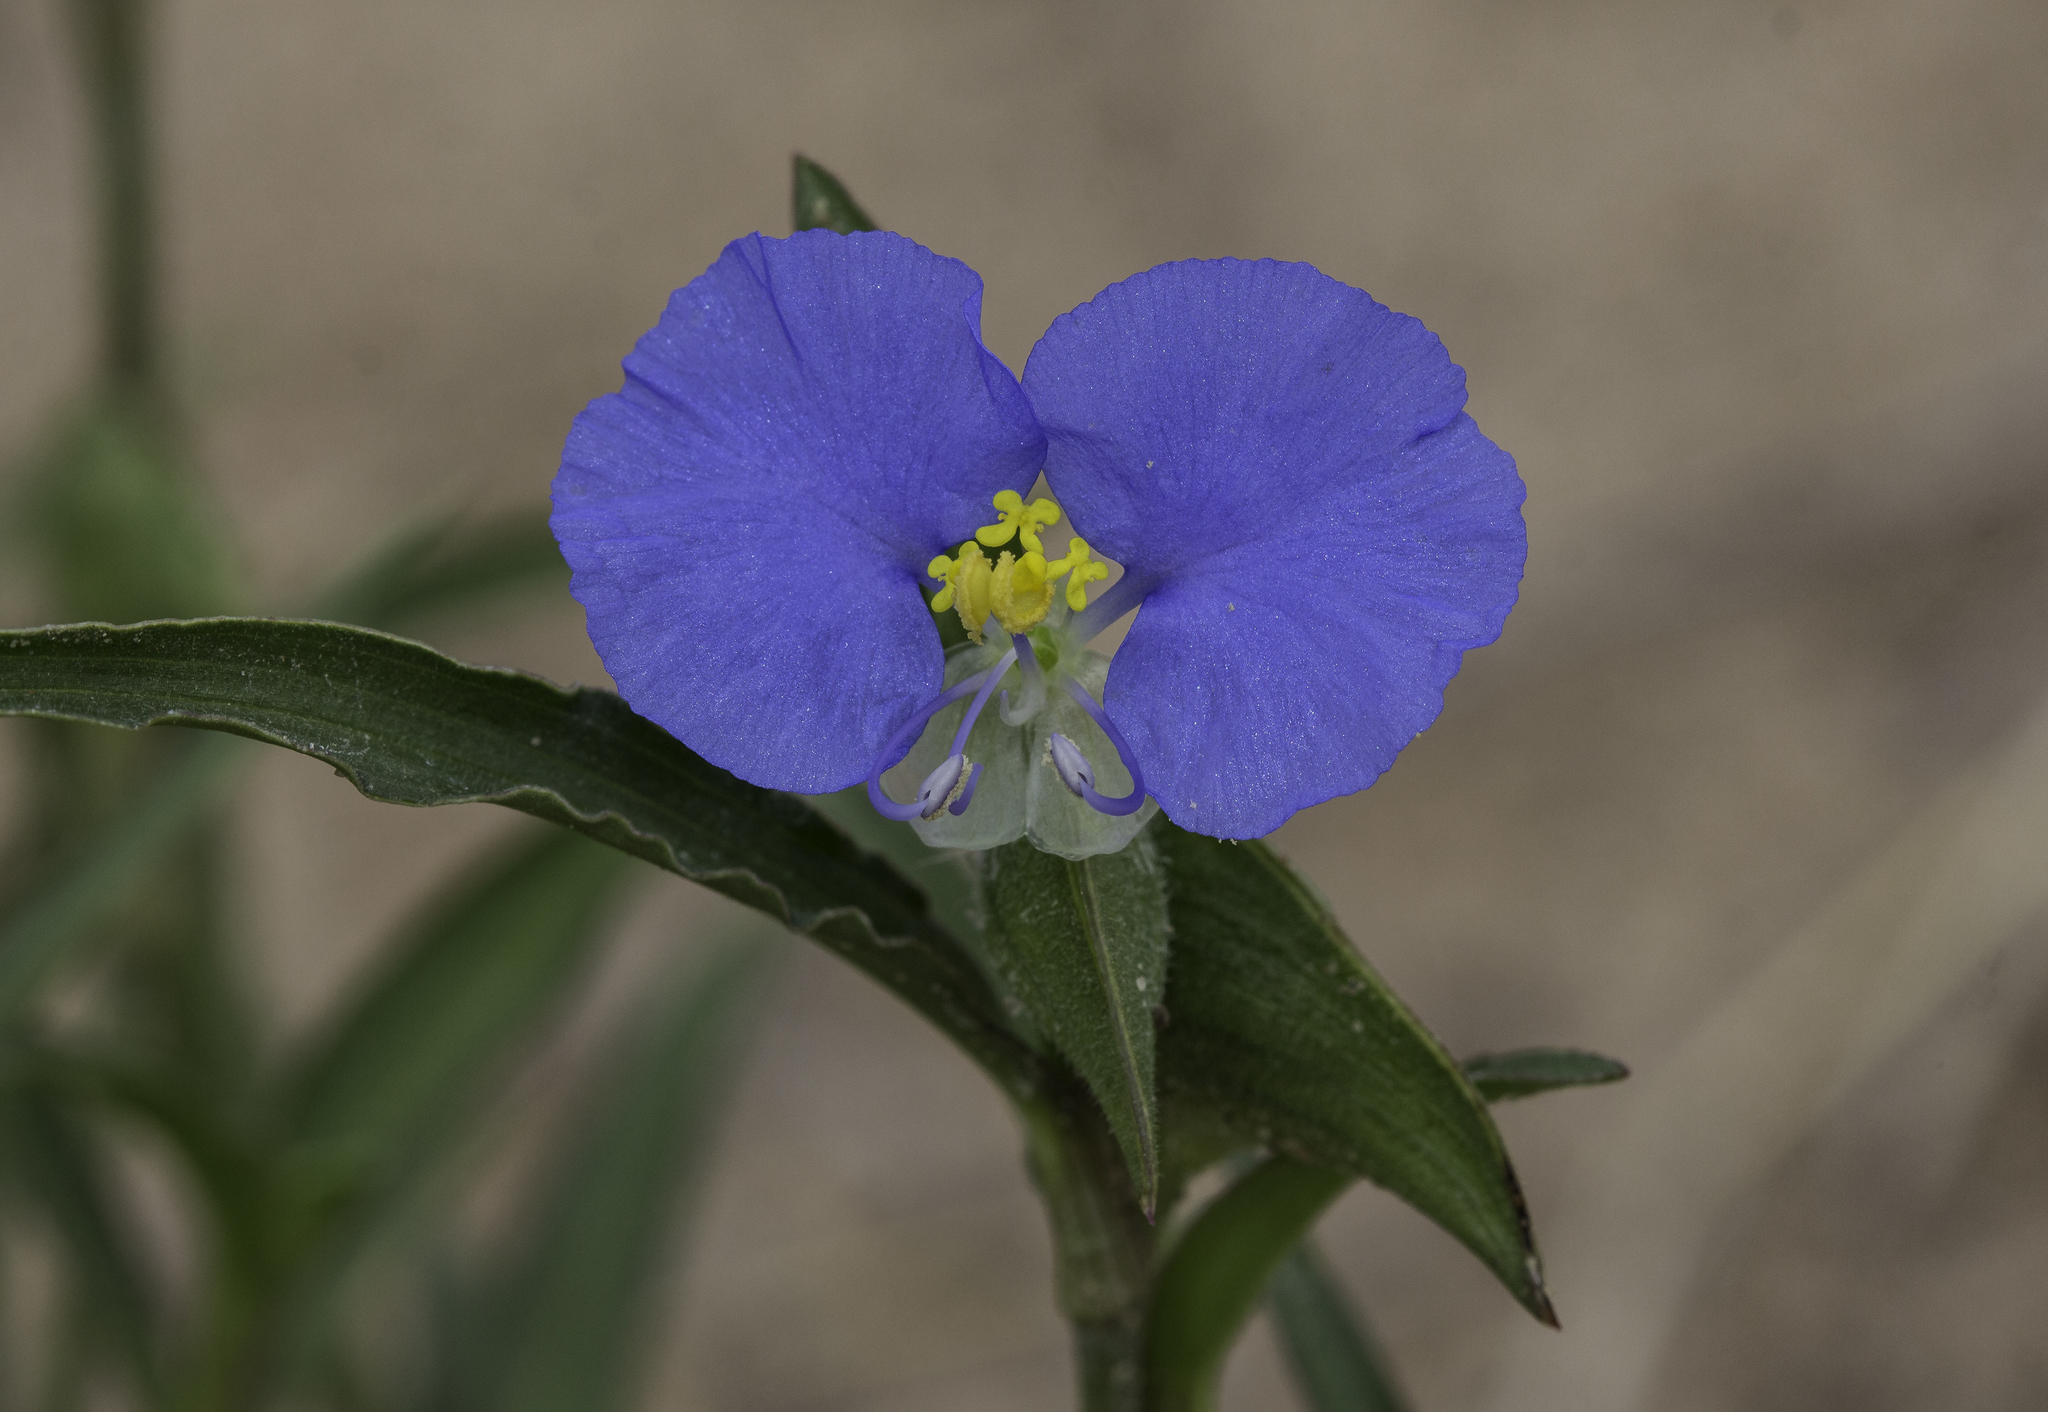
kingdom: Plantae
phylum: Tracheophyta
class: Liliopsida
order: Commelinales
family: Commelinaceae
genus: Commelina
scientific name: Commelina erecta
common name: Blousel blommetjie
